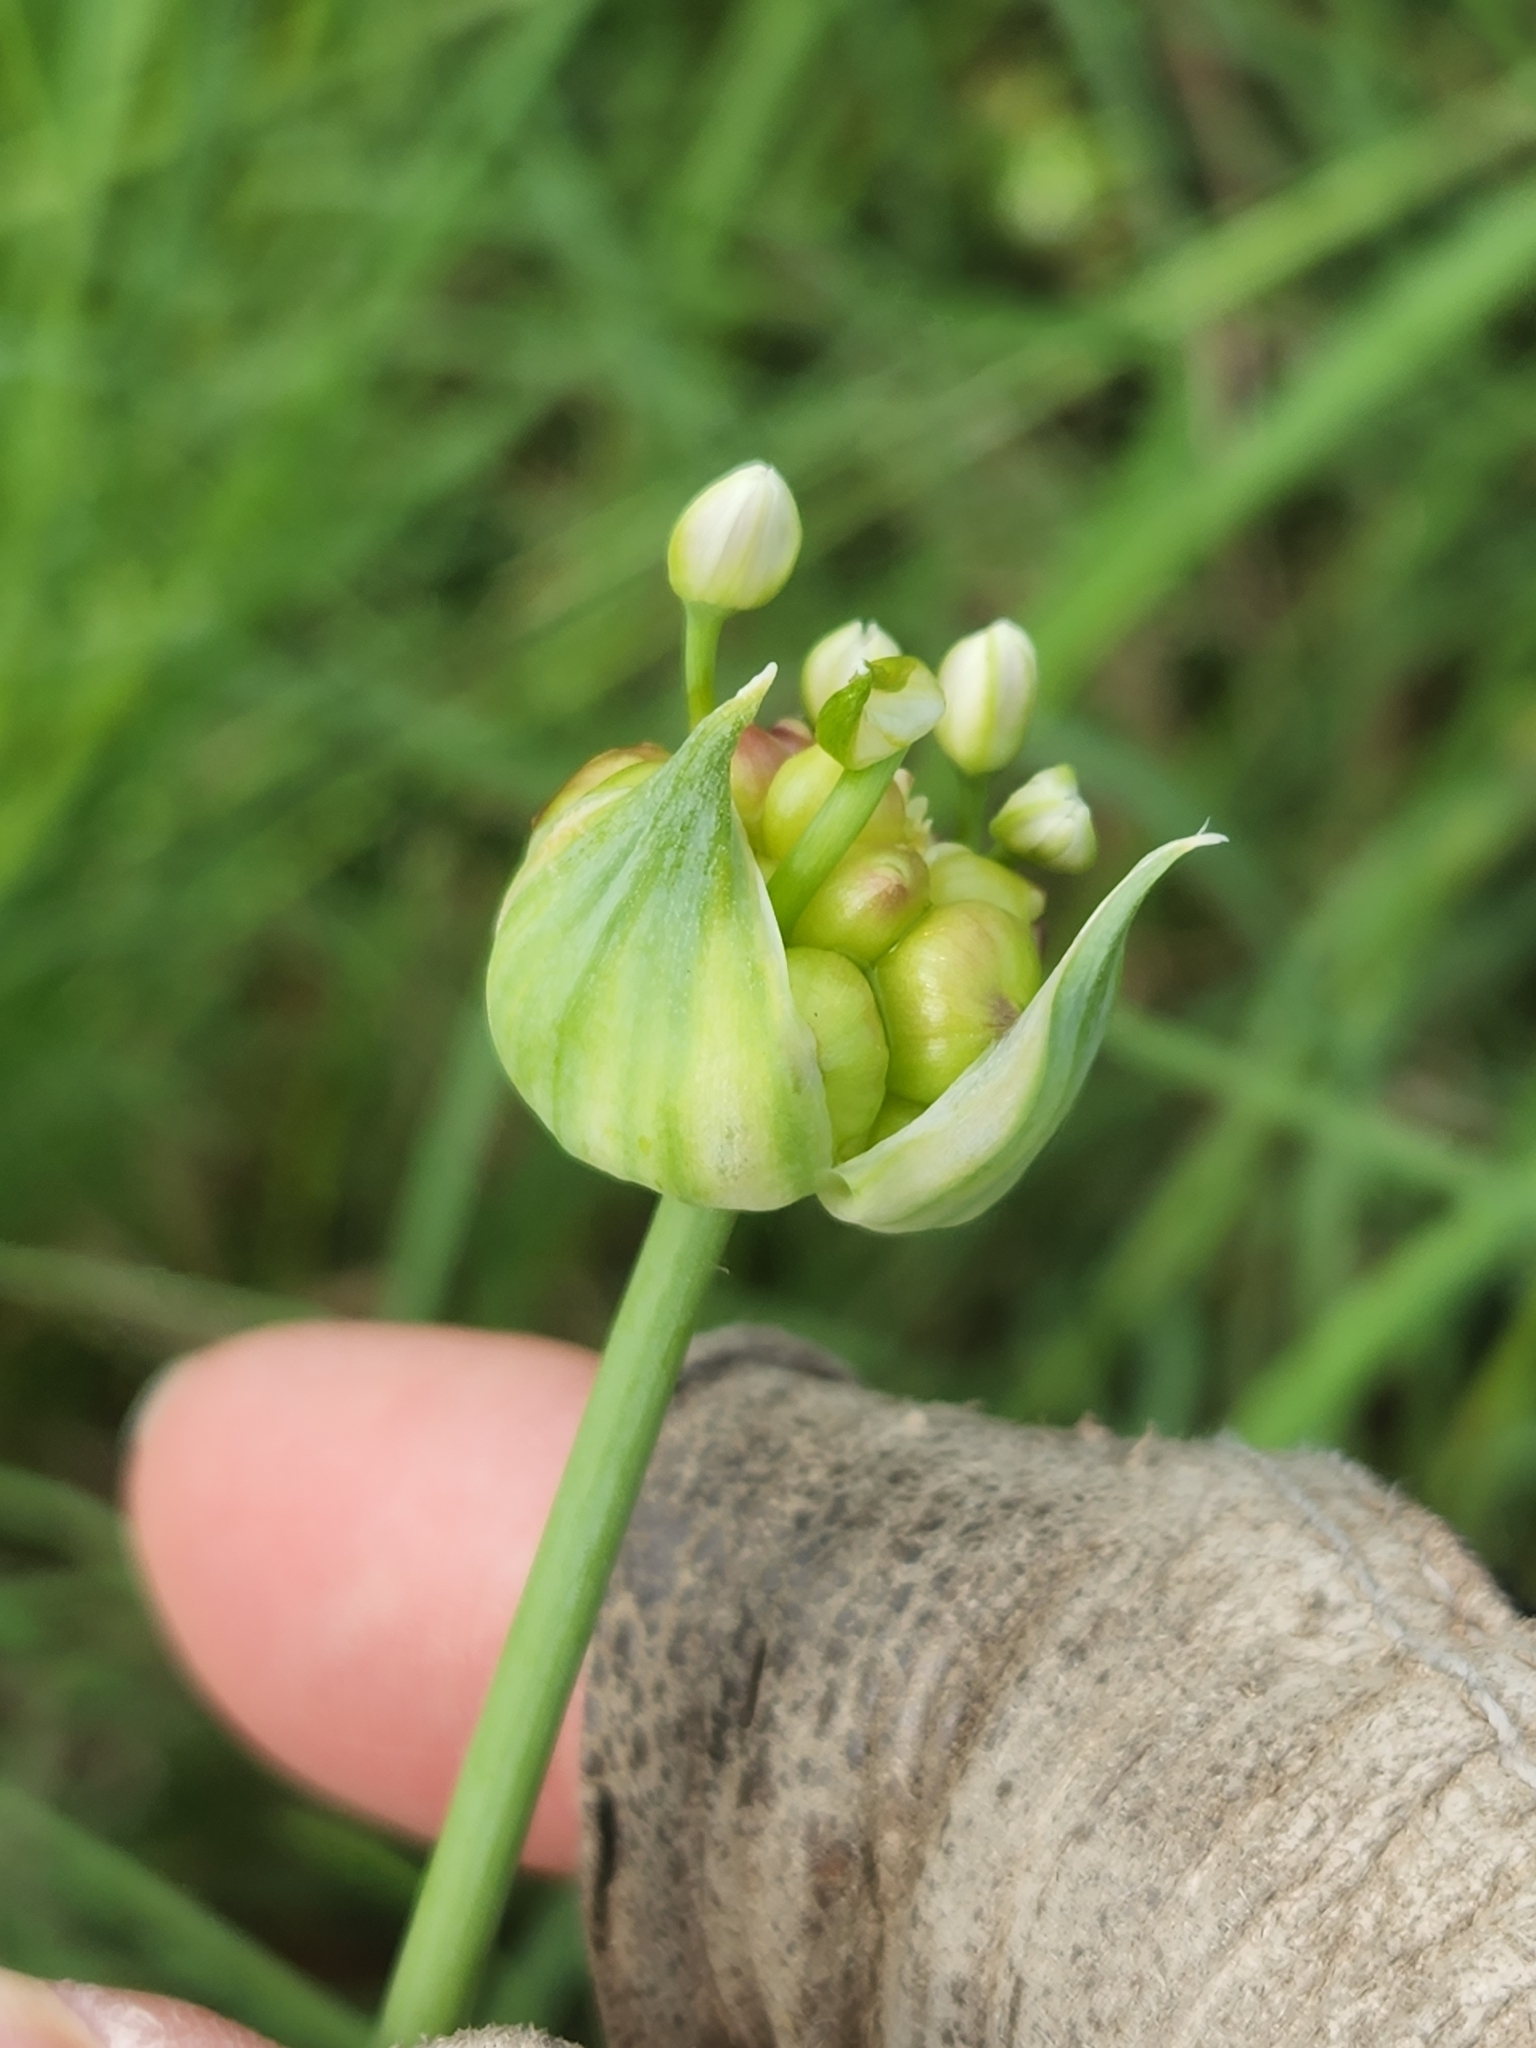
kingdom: Plantae
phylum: Tracheophyta
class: Liliopsida
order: Asparagales
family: Amaryllidaceae
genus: Allium
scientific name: Allium canadense
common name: Meadow garlic
